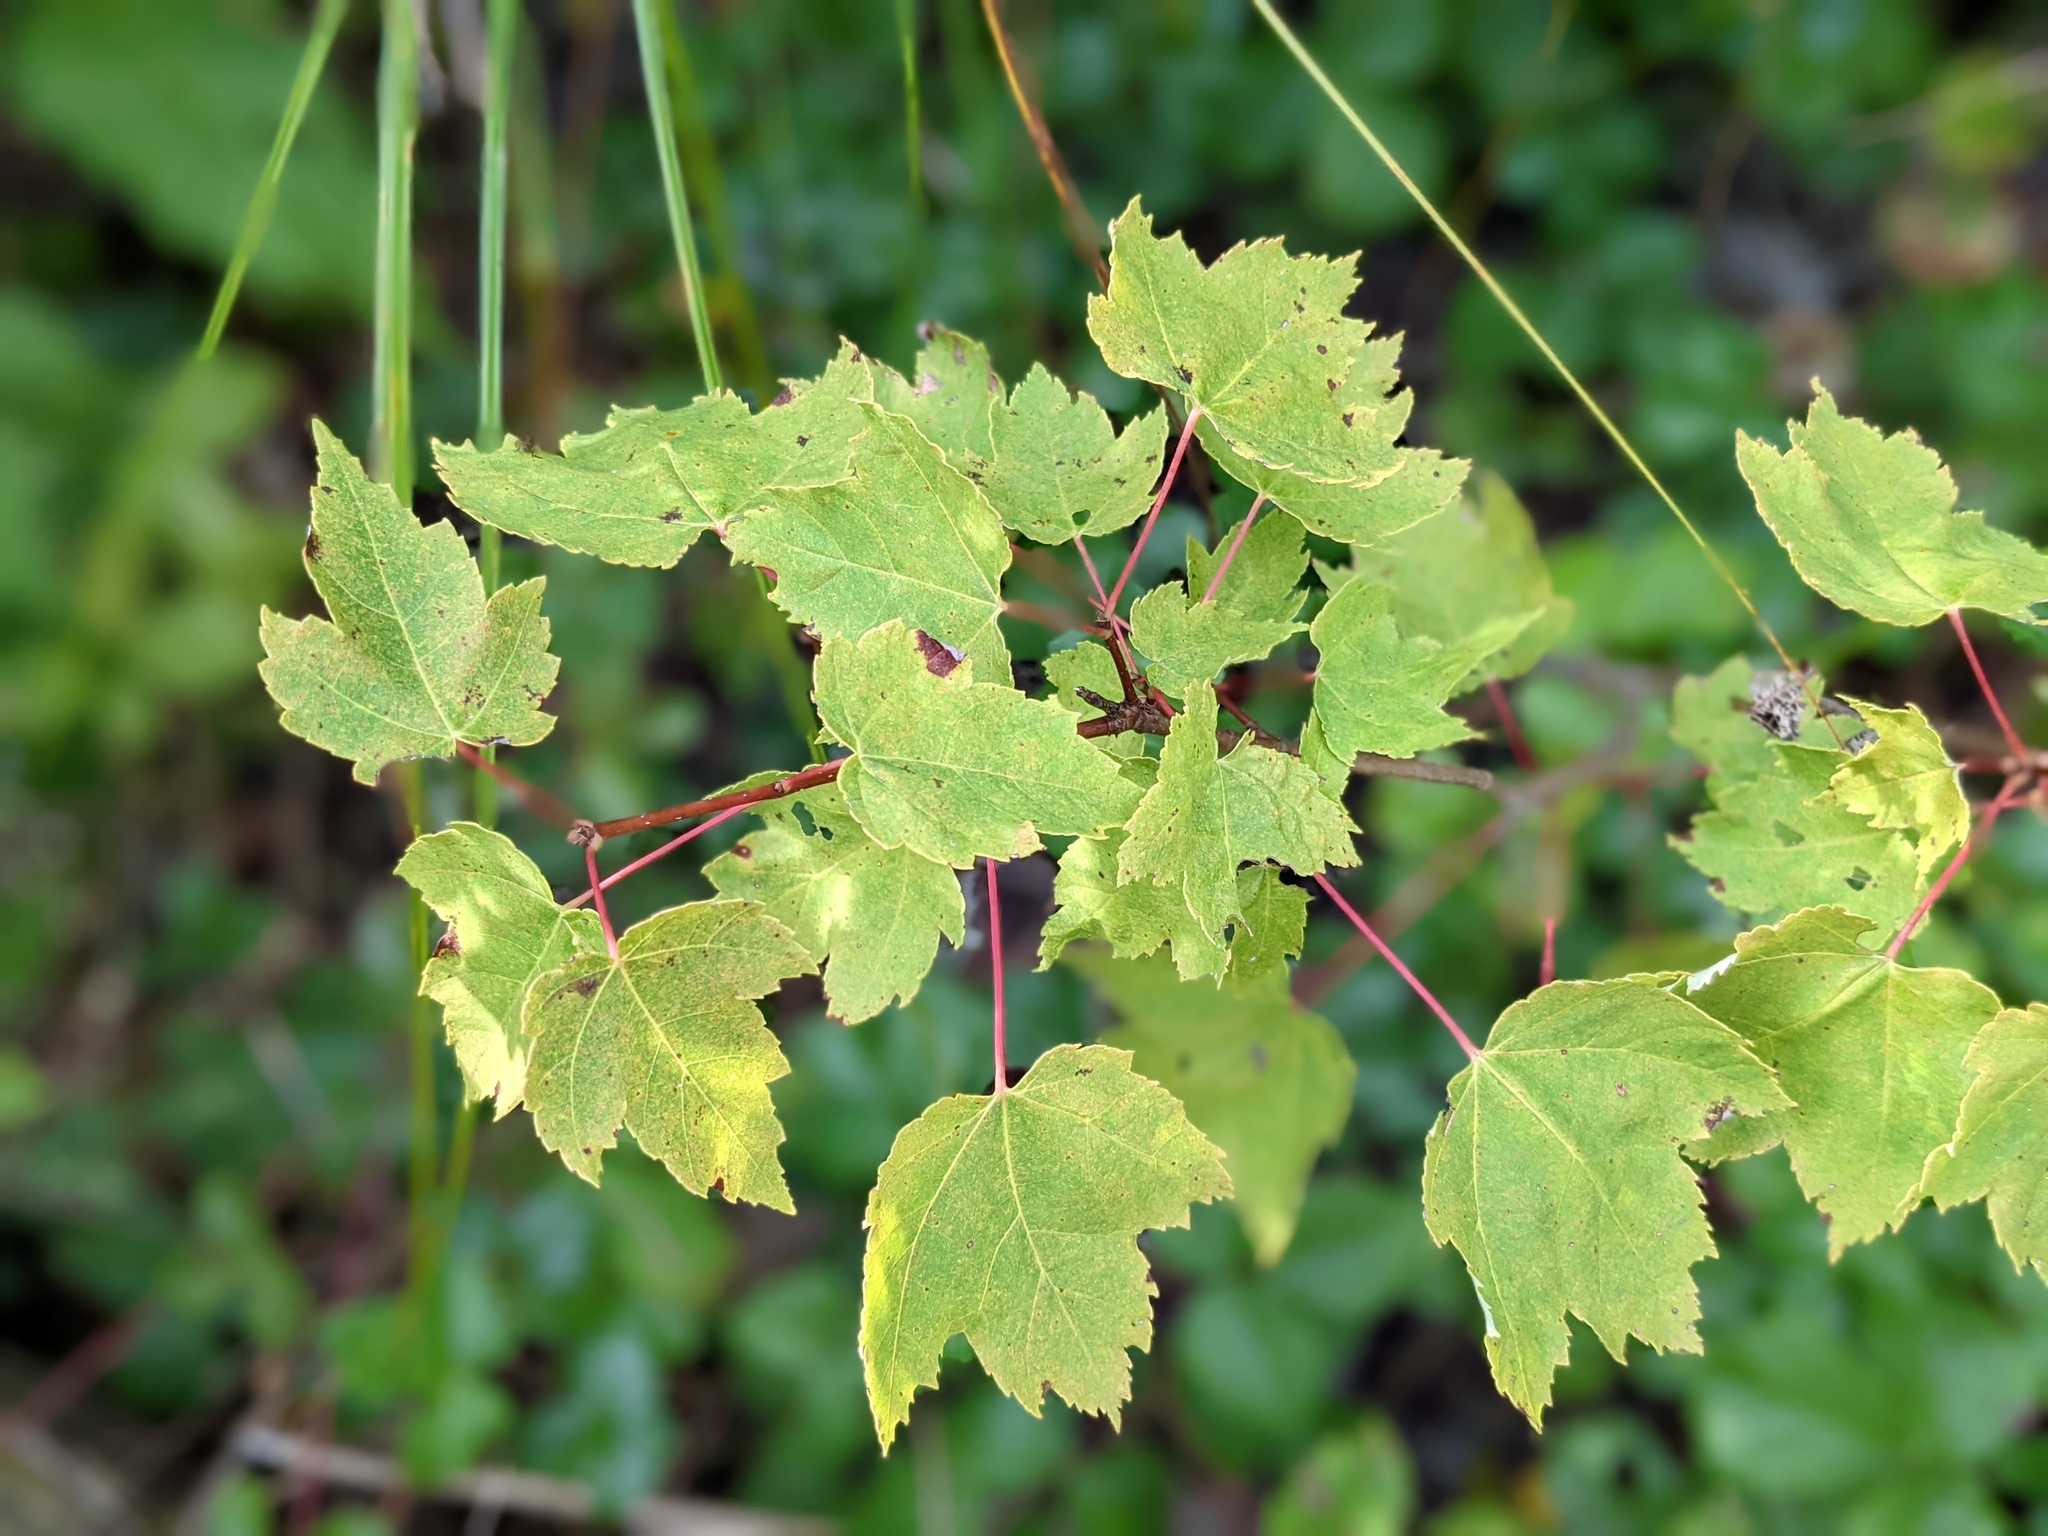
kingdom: Plantae
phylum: Tracheophyta
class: Magnoliopsida
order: Sapindales
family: Sapindaceae
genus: Acer
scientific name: Acer rubrum
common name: Red maple
